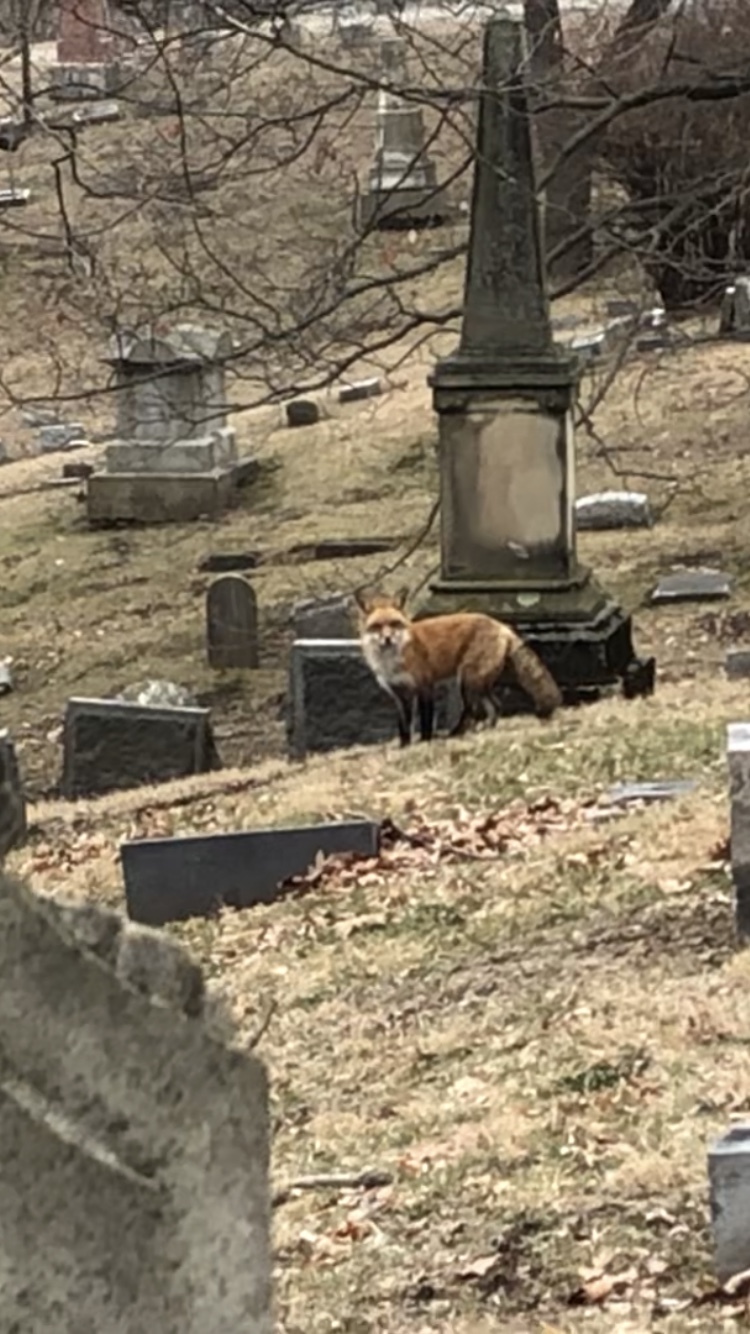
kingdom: Animalia
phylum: Chordata
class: Mammalia
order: Carnivora
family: Canidae
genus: Vulpes
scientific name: Vulpes vulpes
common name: Red fox
